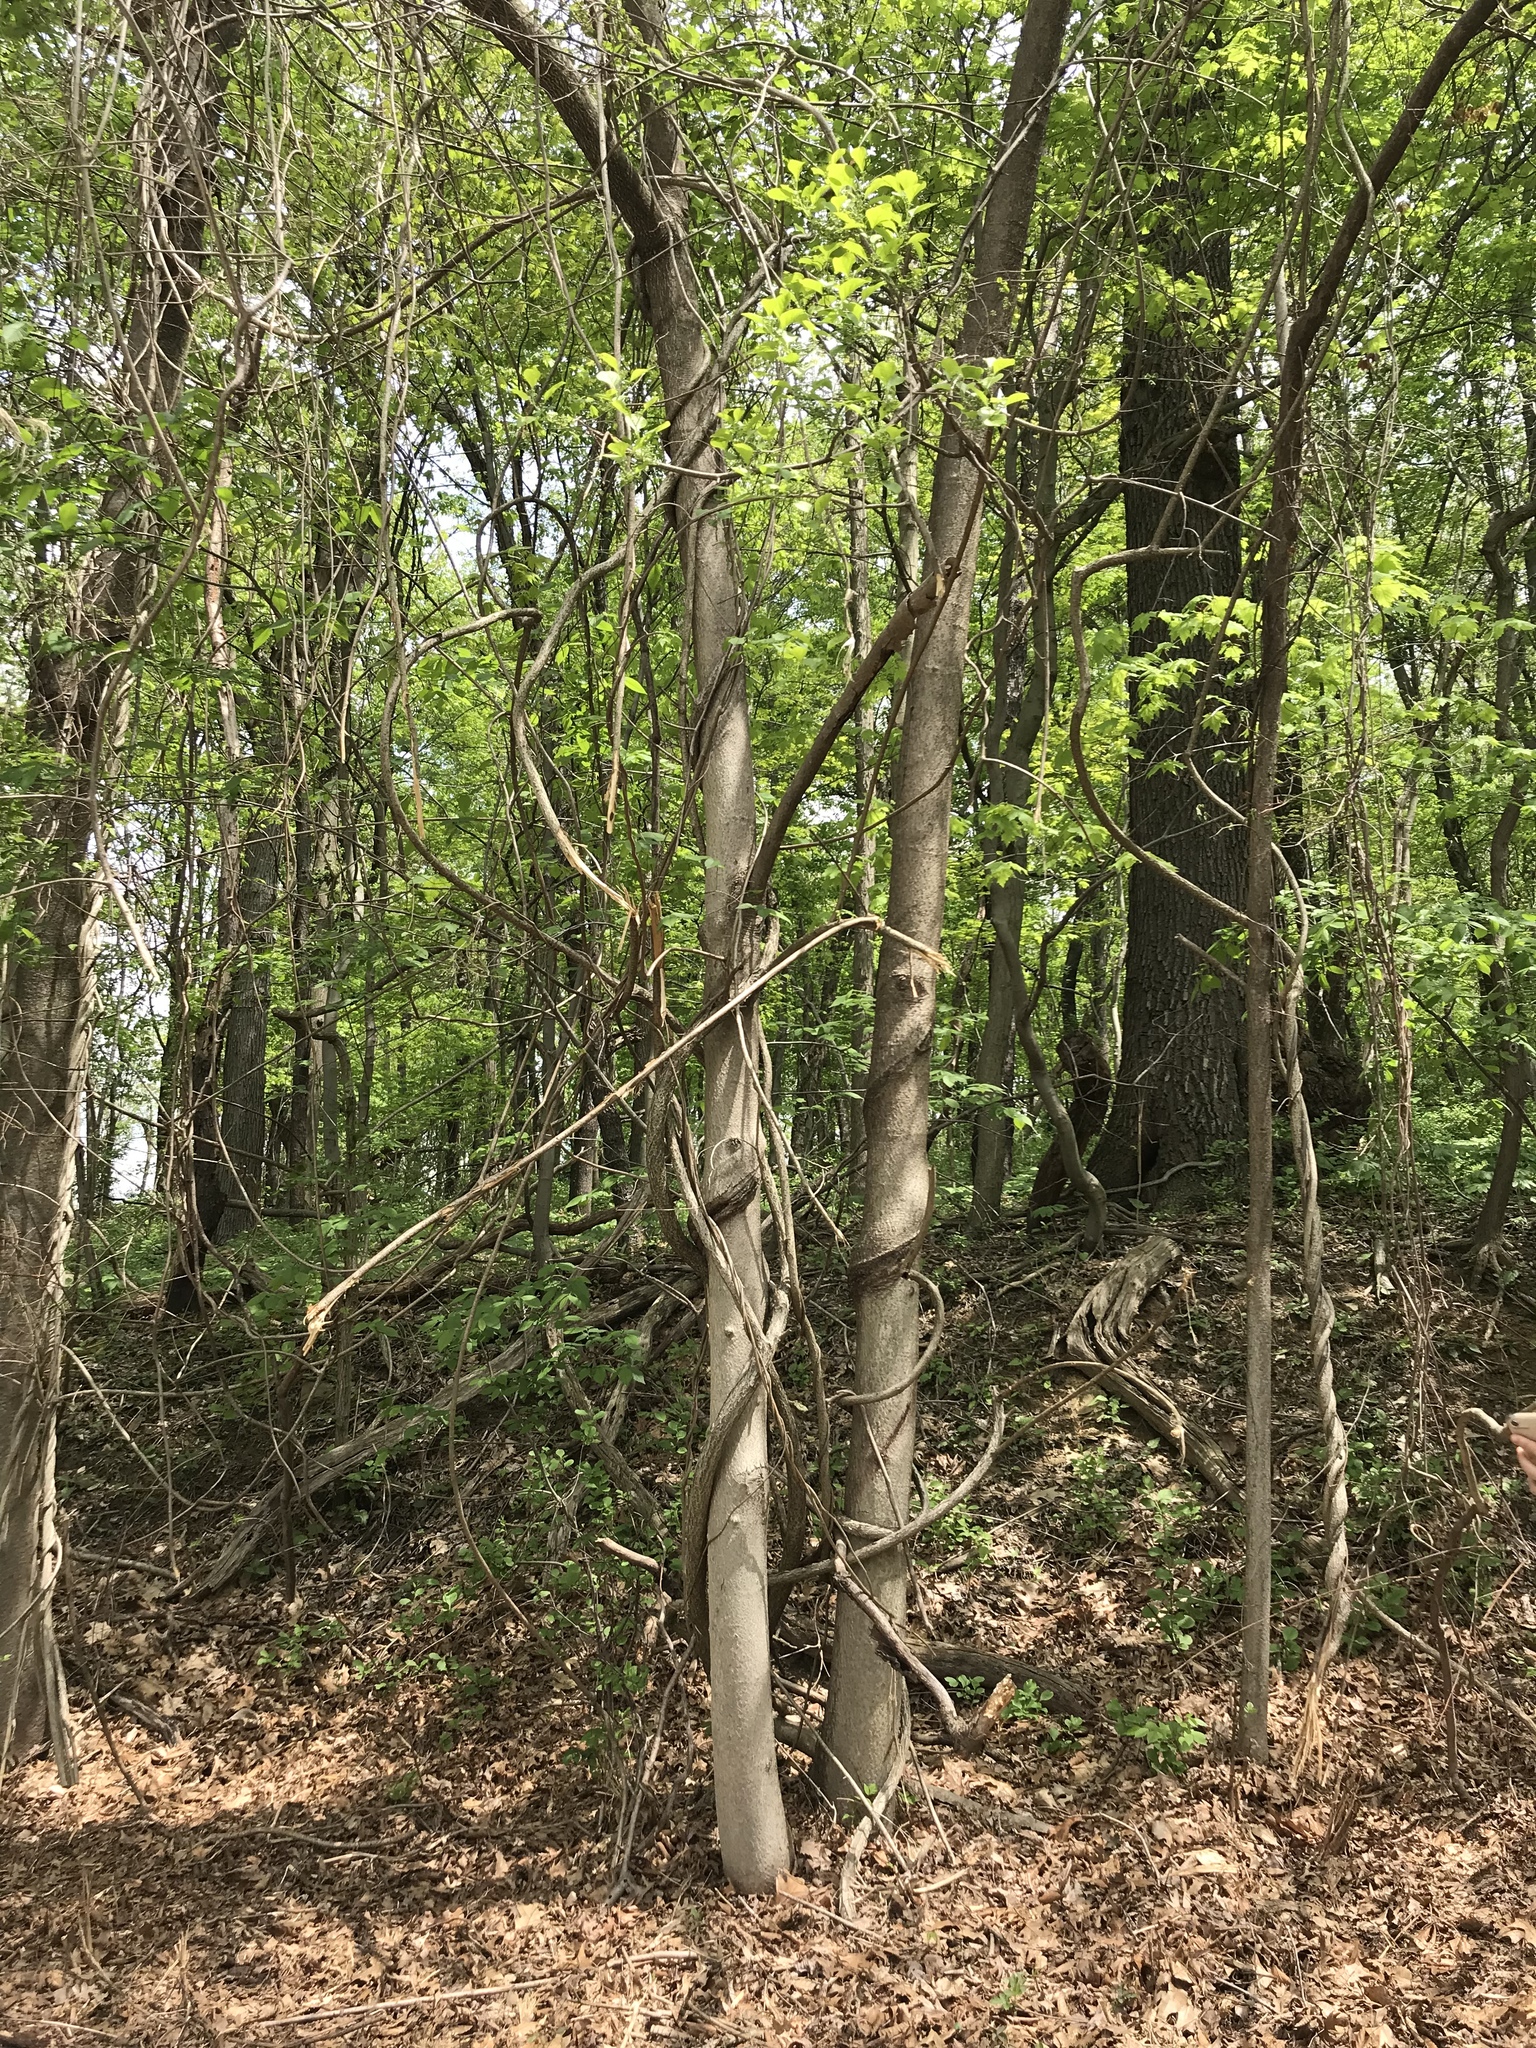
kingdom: Plantae
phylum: Tracheophyta
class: Magnoliopsida
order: Sapindales
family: Simaroubaceae
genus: Ailanthus
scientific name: Ailanthus altissima
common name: Tree-of-heaven
